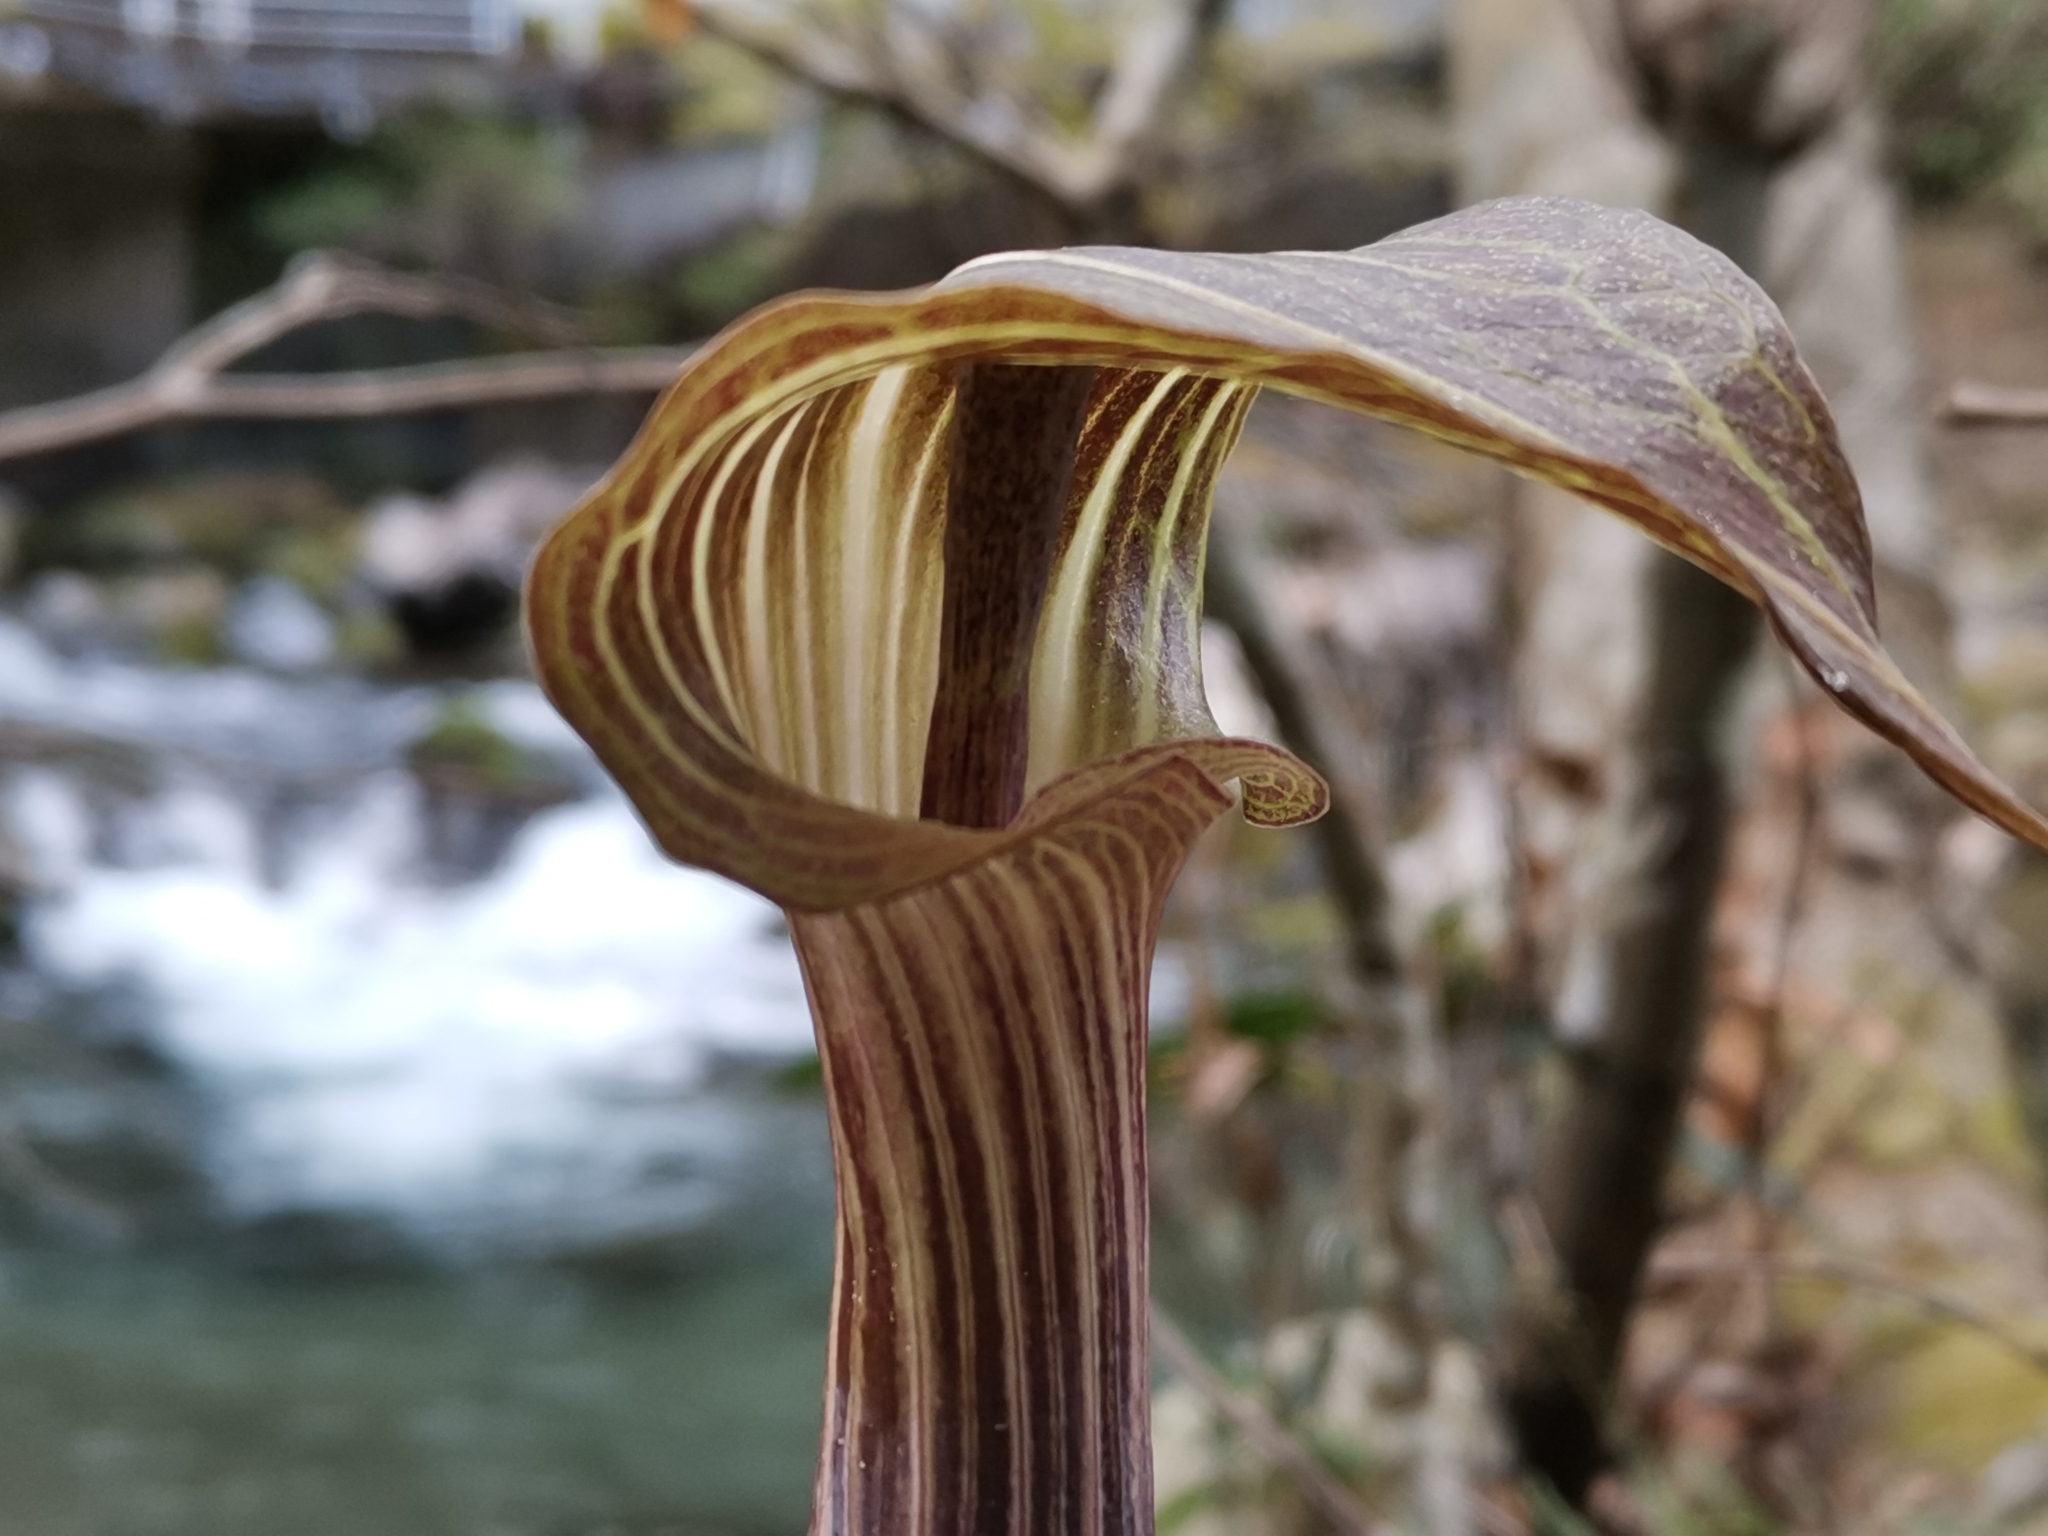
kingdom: Plantae
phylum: Tracheophyta
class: Liliopsida
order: Alismatales
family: Araceae
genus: Arisaema
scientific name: Arisaema undulatifolium
